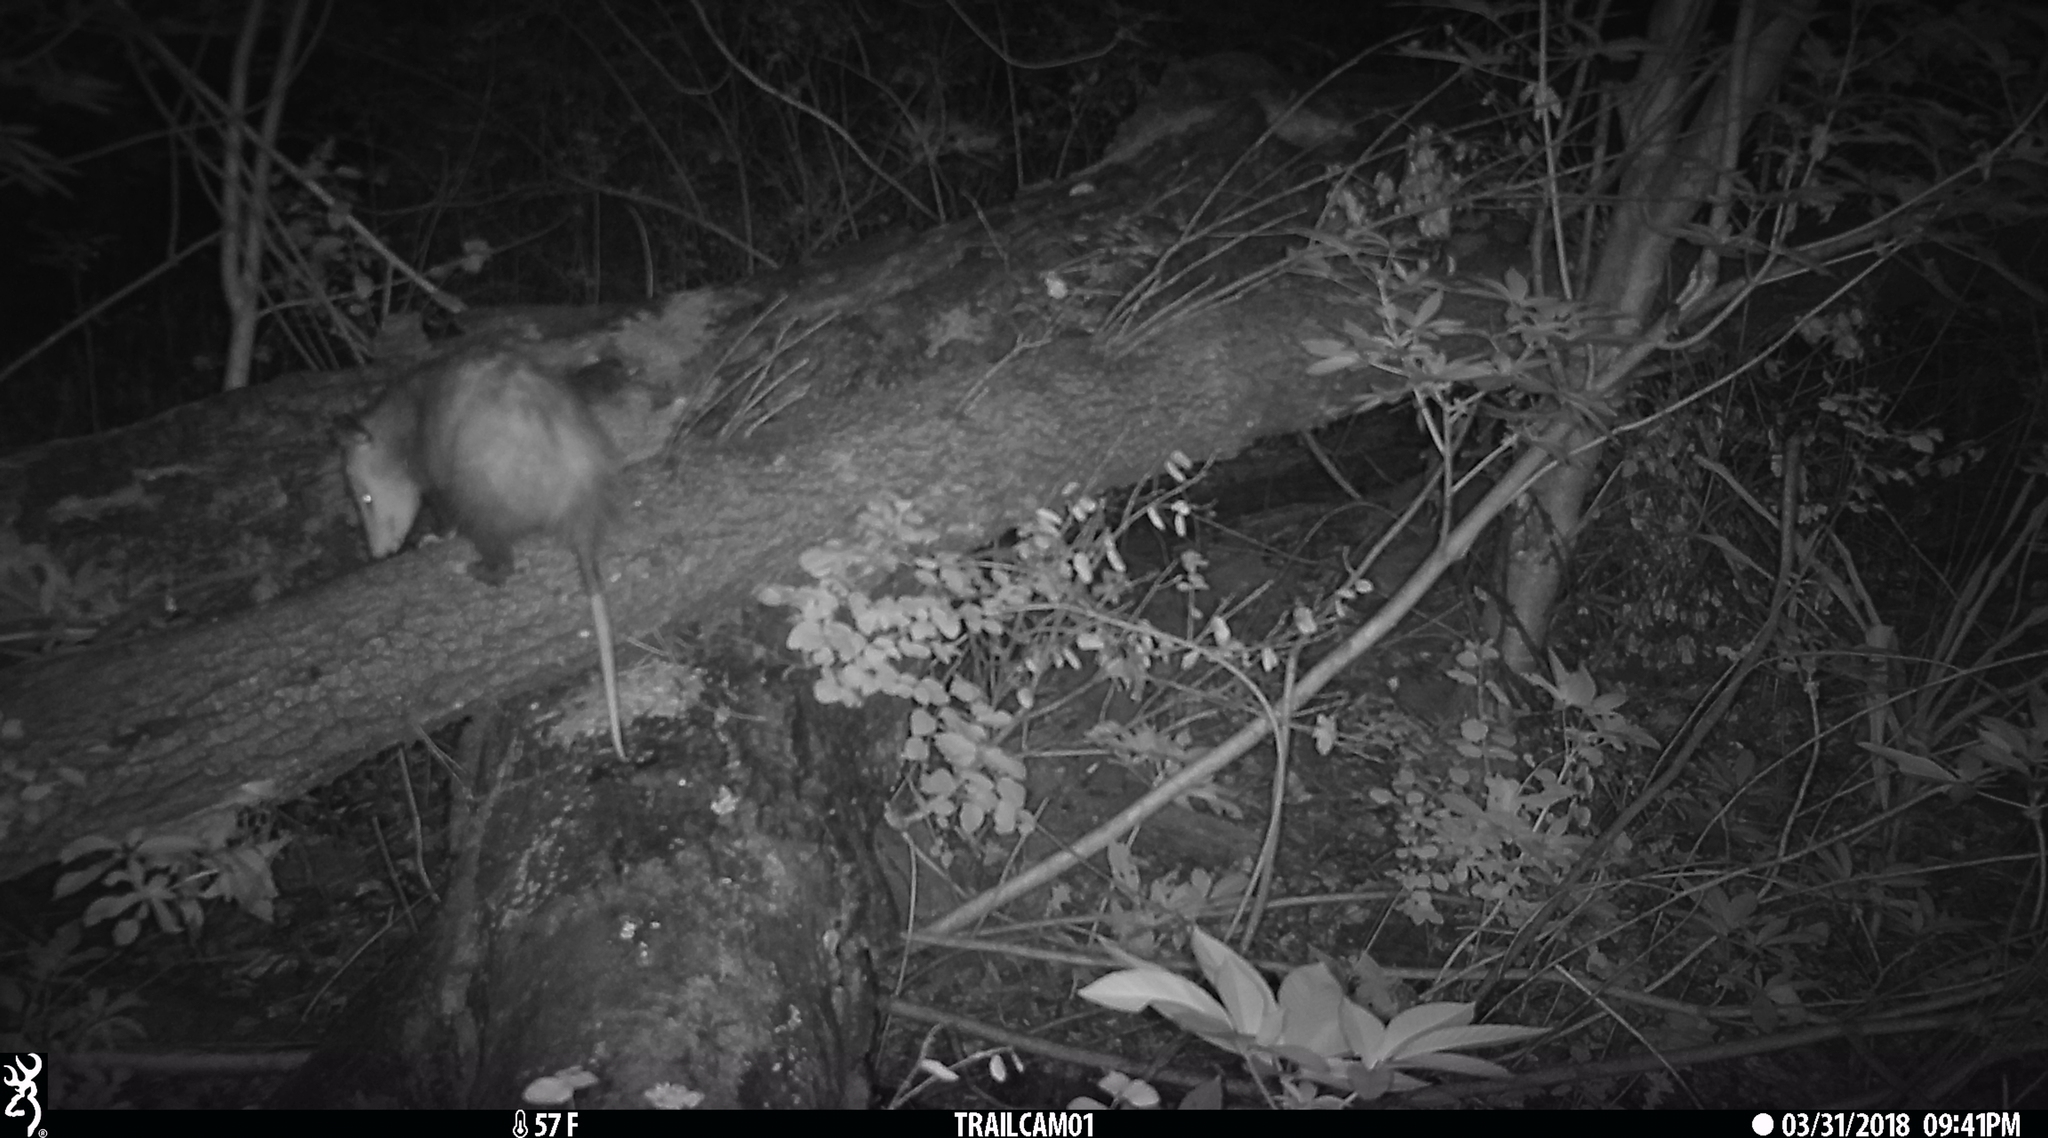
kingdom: Animalia
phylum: Chordata
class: Mammalia
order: Didelphimorphia
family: Didelphidae
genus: Didelphis
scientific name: Didelphis virginiana
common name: Virginia opossum
